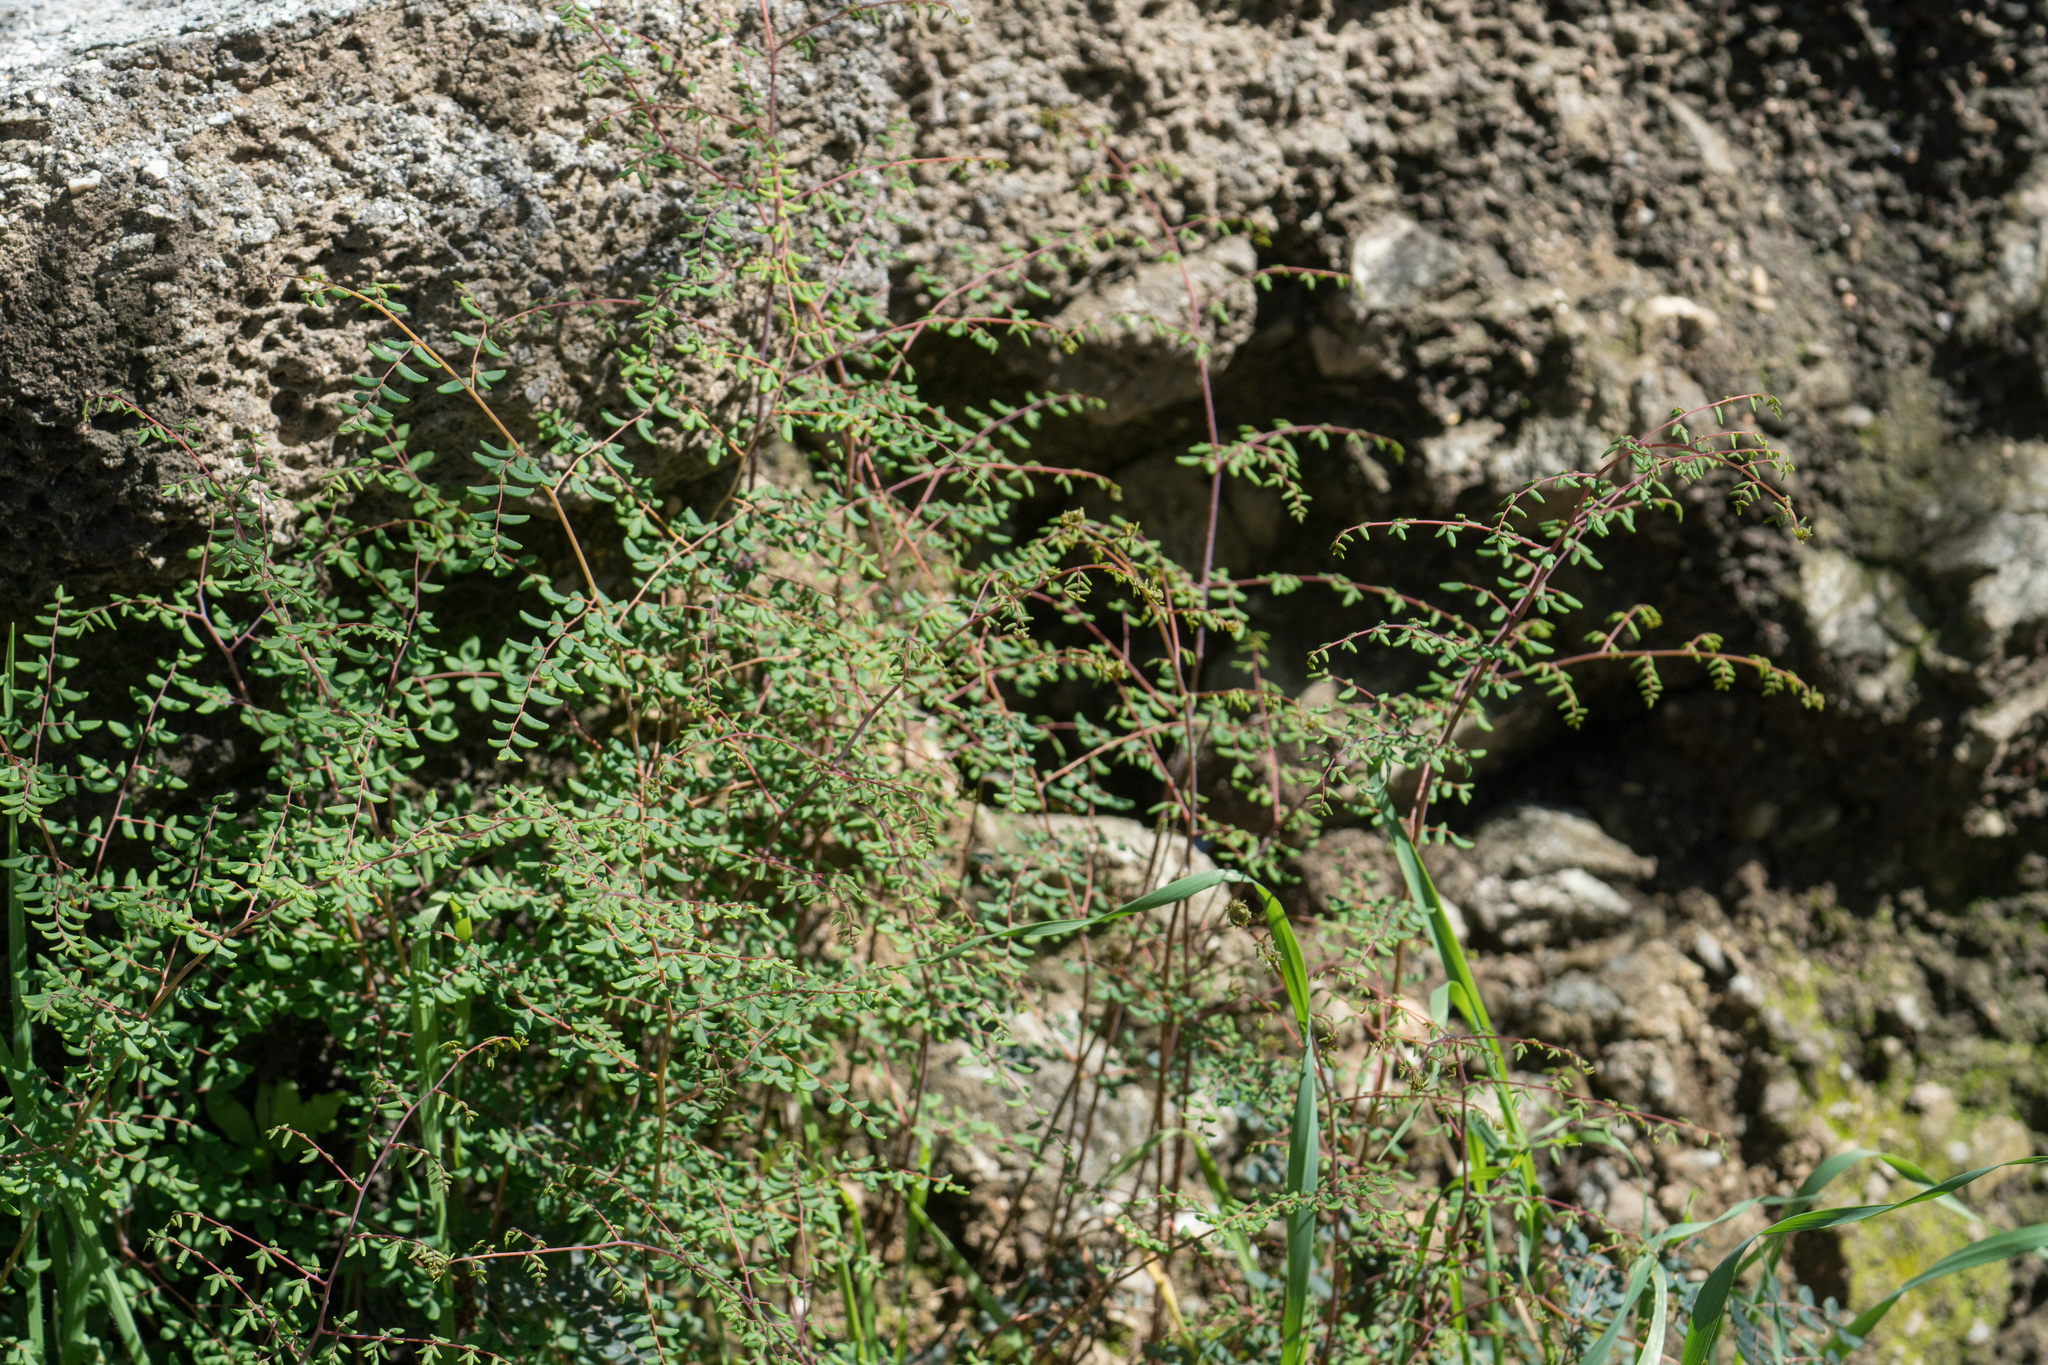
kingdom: Plantae
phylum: Tracheophyta
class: Polypodiopsida
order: Polypodiales
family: Pteridaceae
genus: Pellaea
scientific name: Pellaea andromedifolia
